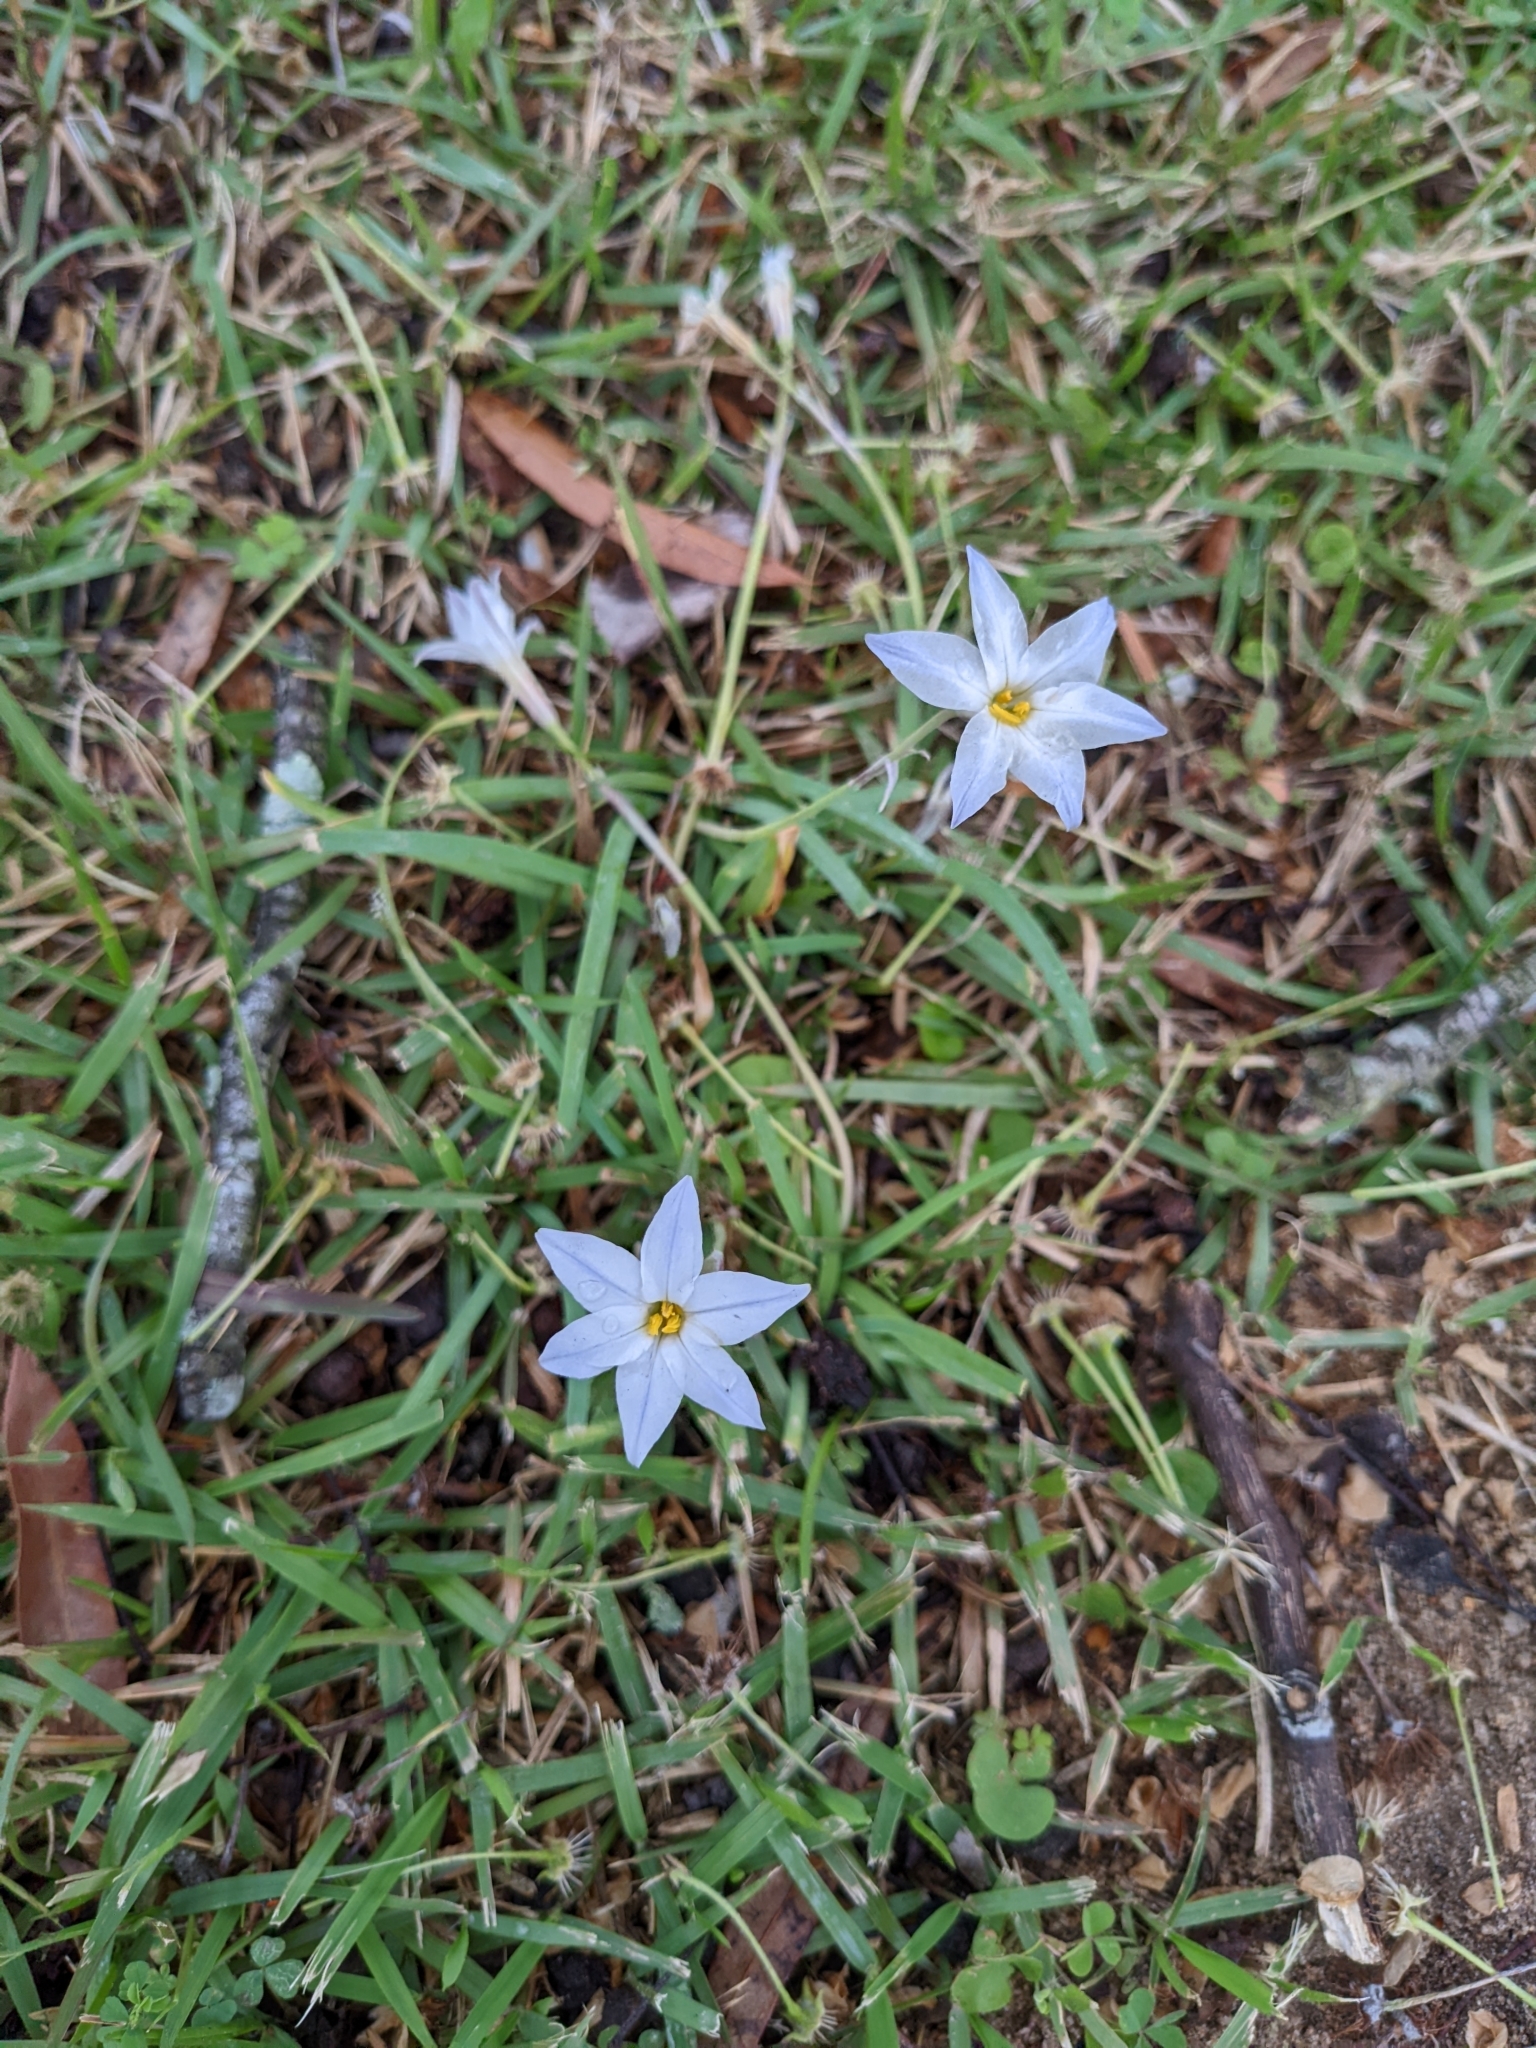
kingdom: Plantae
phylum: Tracheophyta
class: Liliopsida
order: Asparagales
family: Amaryllidaceae
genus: Ipheion
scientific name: Ipheion uniflorum
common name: Spring starflower
